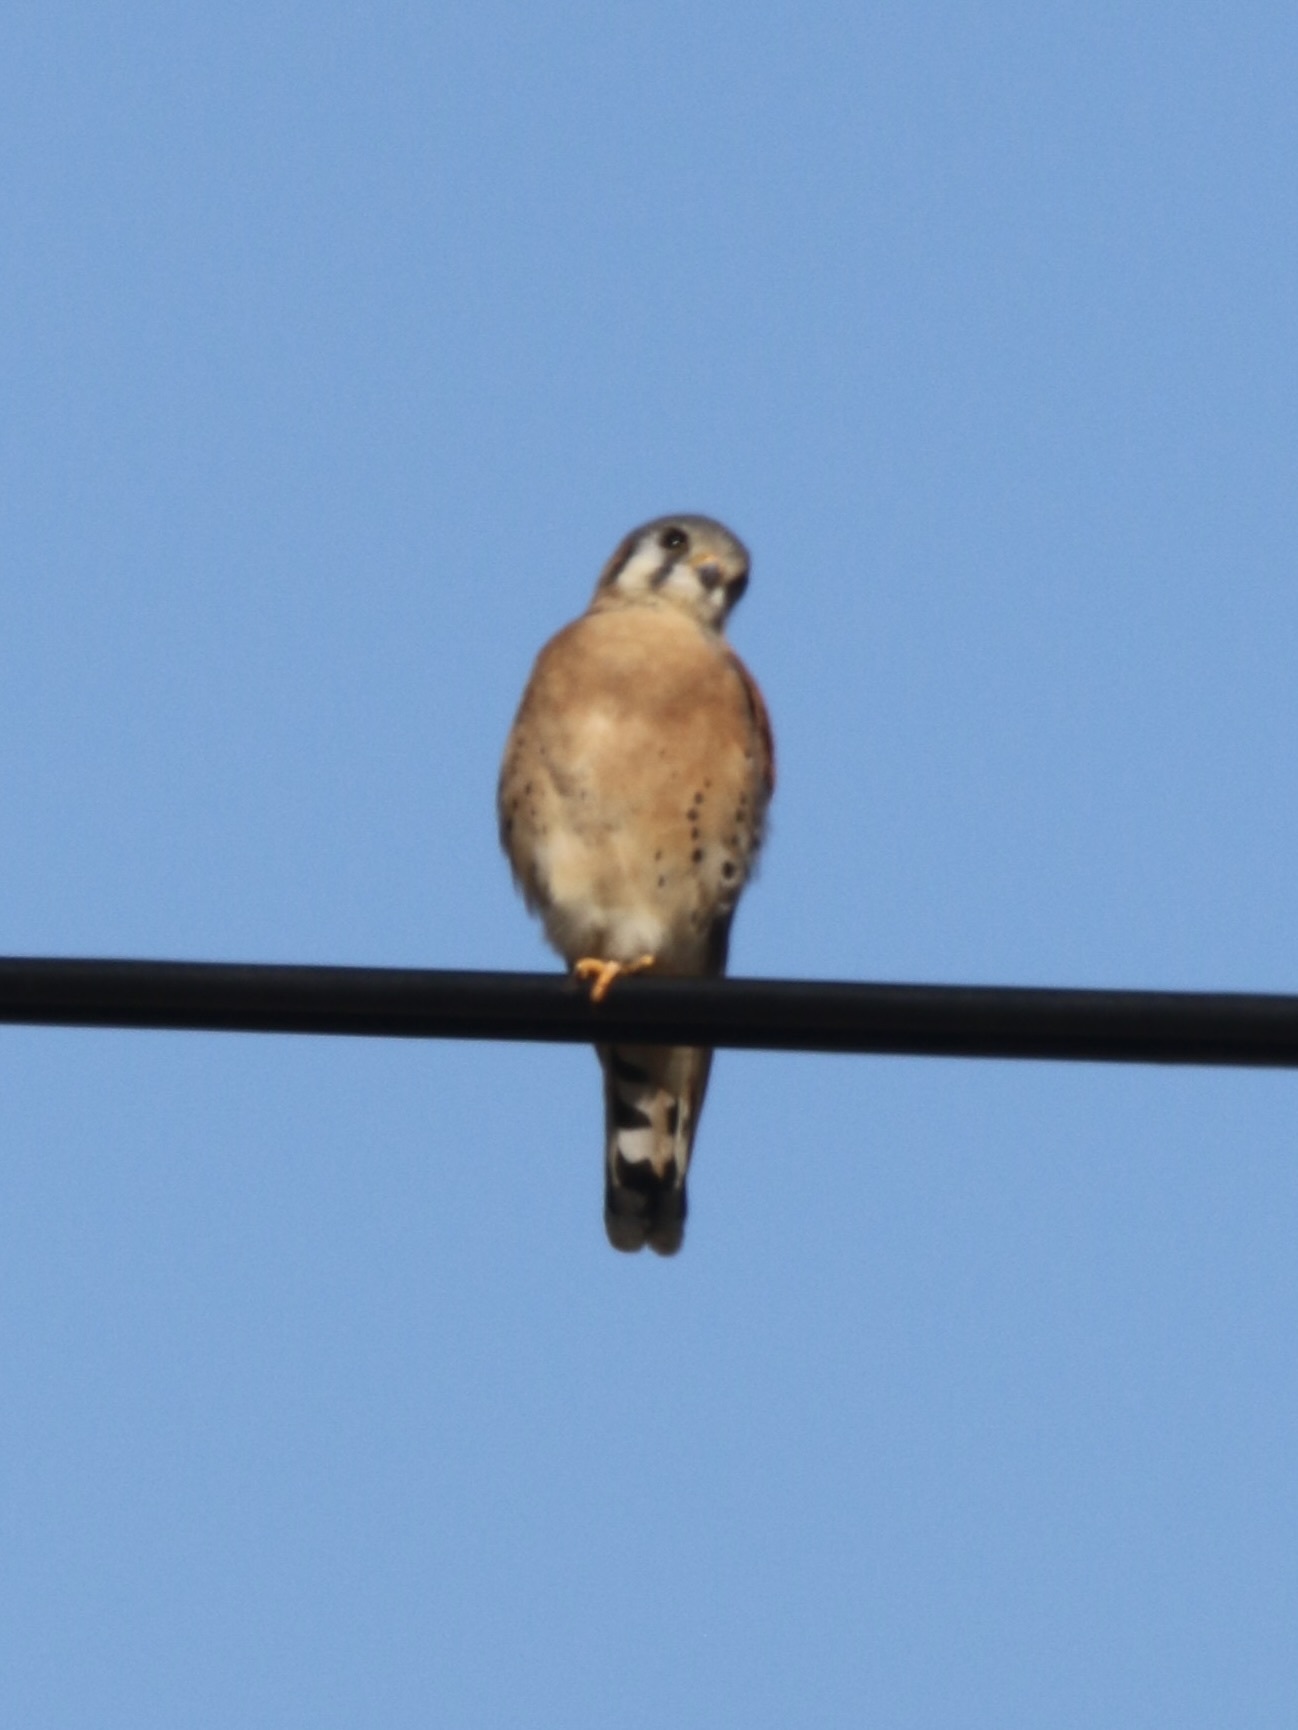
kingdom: Animalia
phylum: Chordata
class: Aves
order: Falconiformes
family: Falconidae
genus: Falco
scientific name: Falco sparverius
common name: American kestrel
